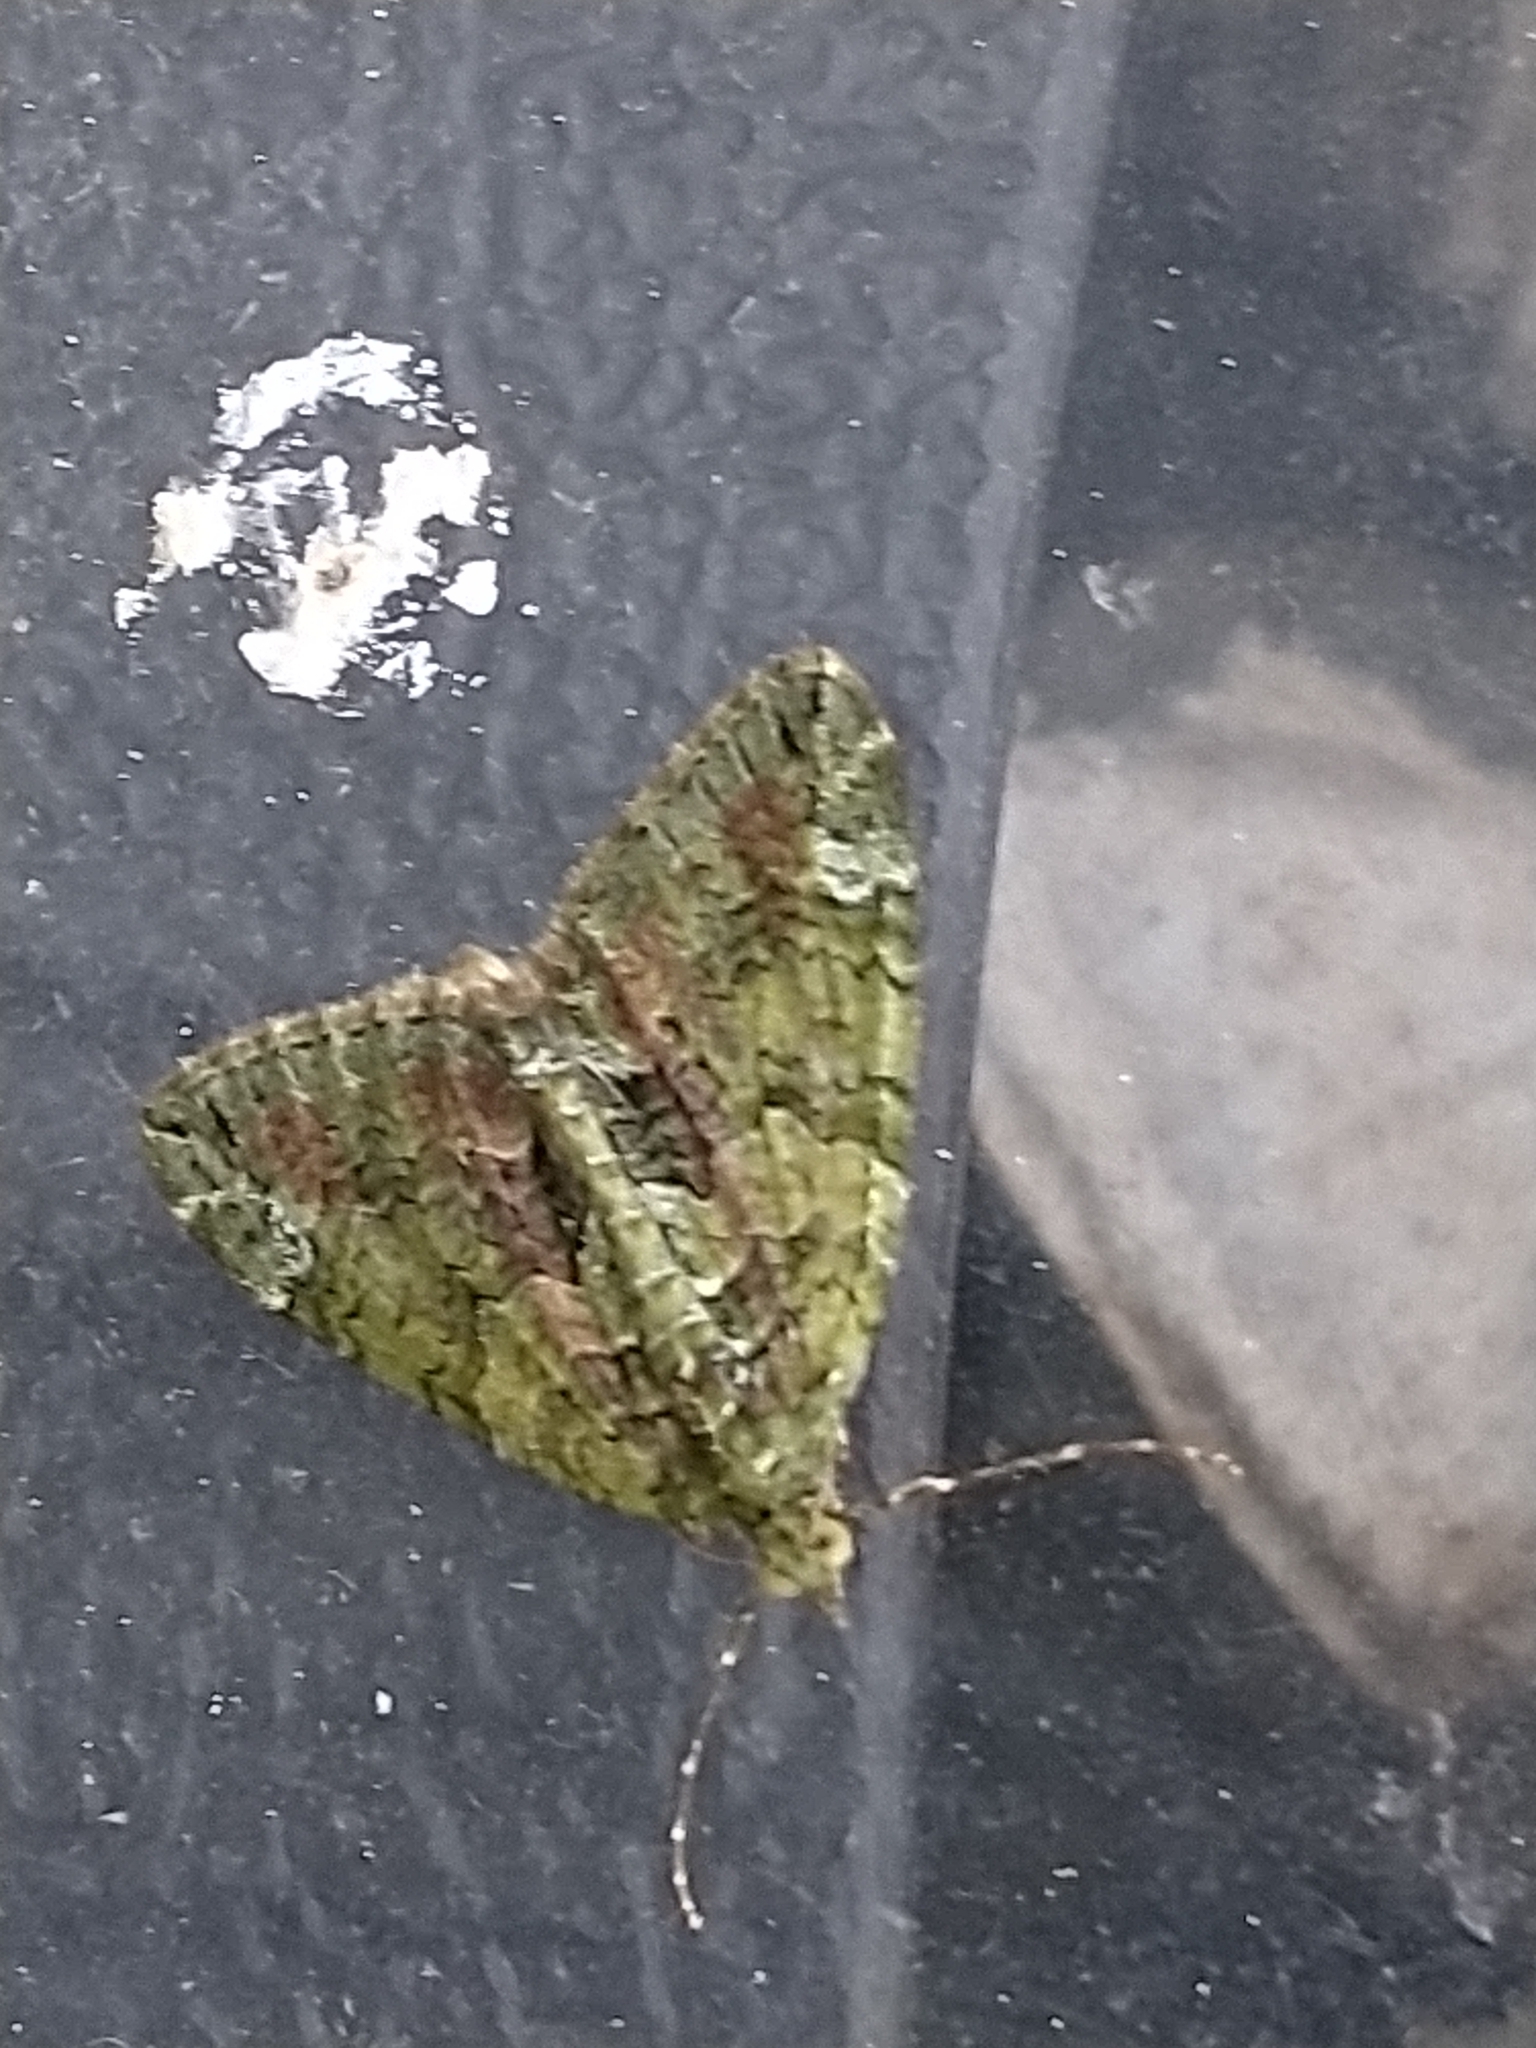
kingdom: Animalia
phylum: Arthropoda
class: Insecta
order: Lepidoptera
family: Geometridae
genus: Chloroclysta
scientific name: Chloroclysta siterata
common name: Red-green carpet
